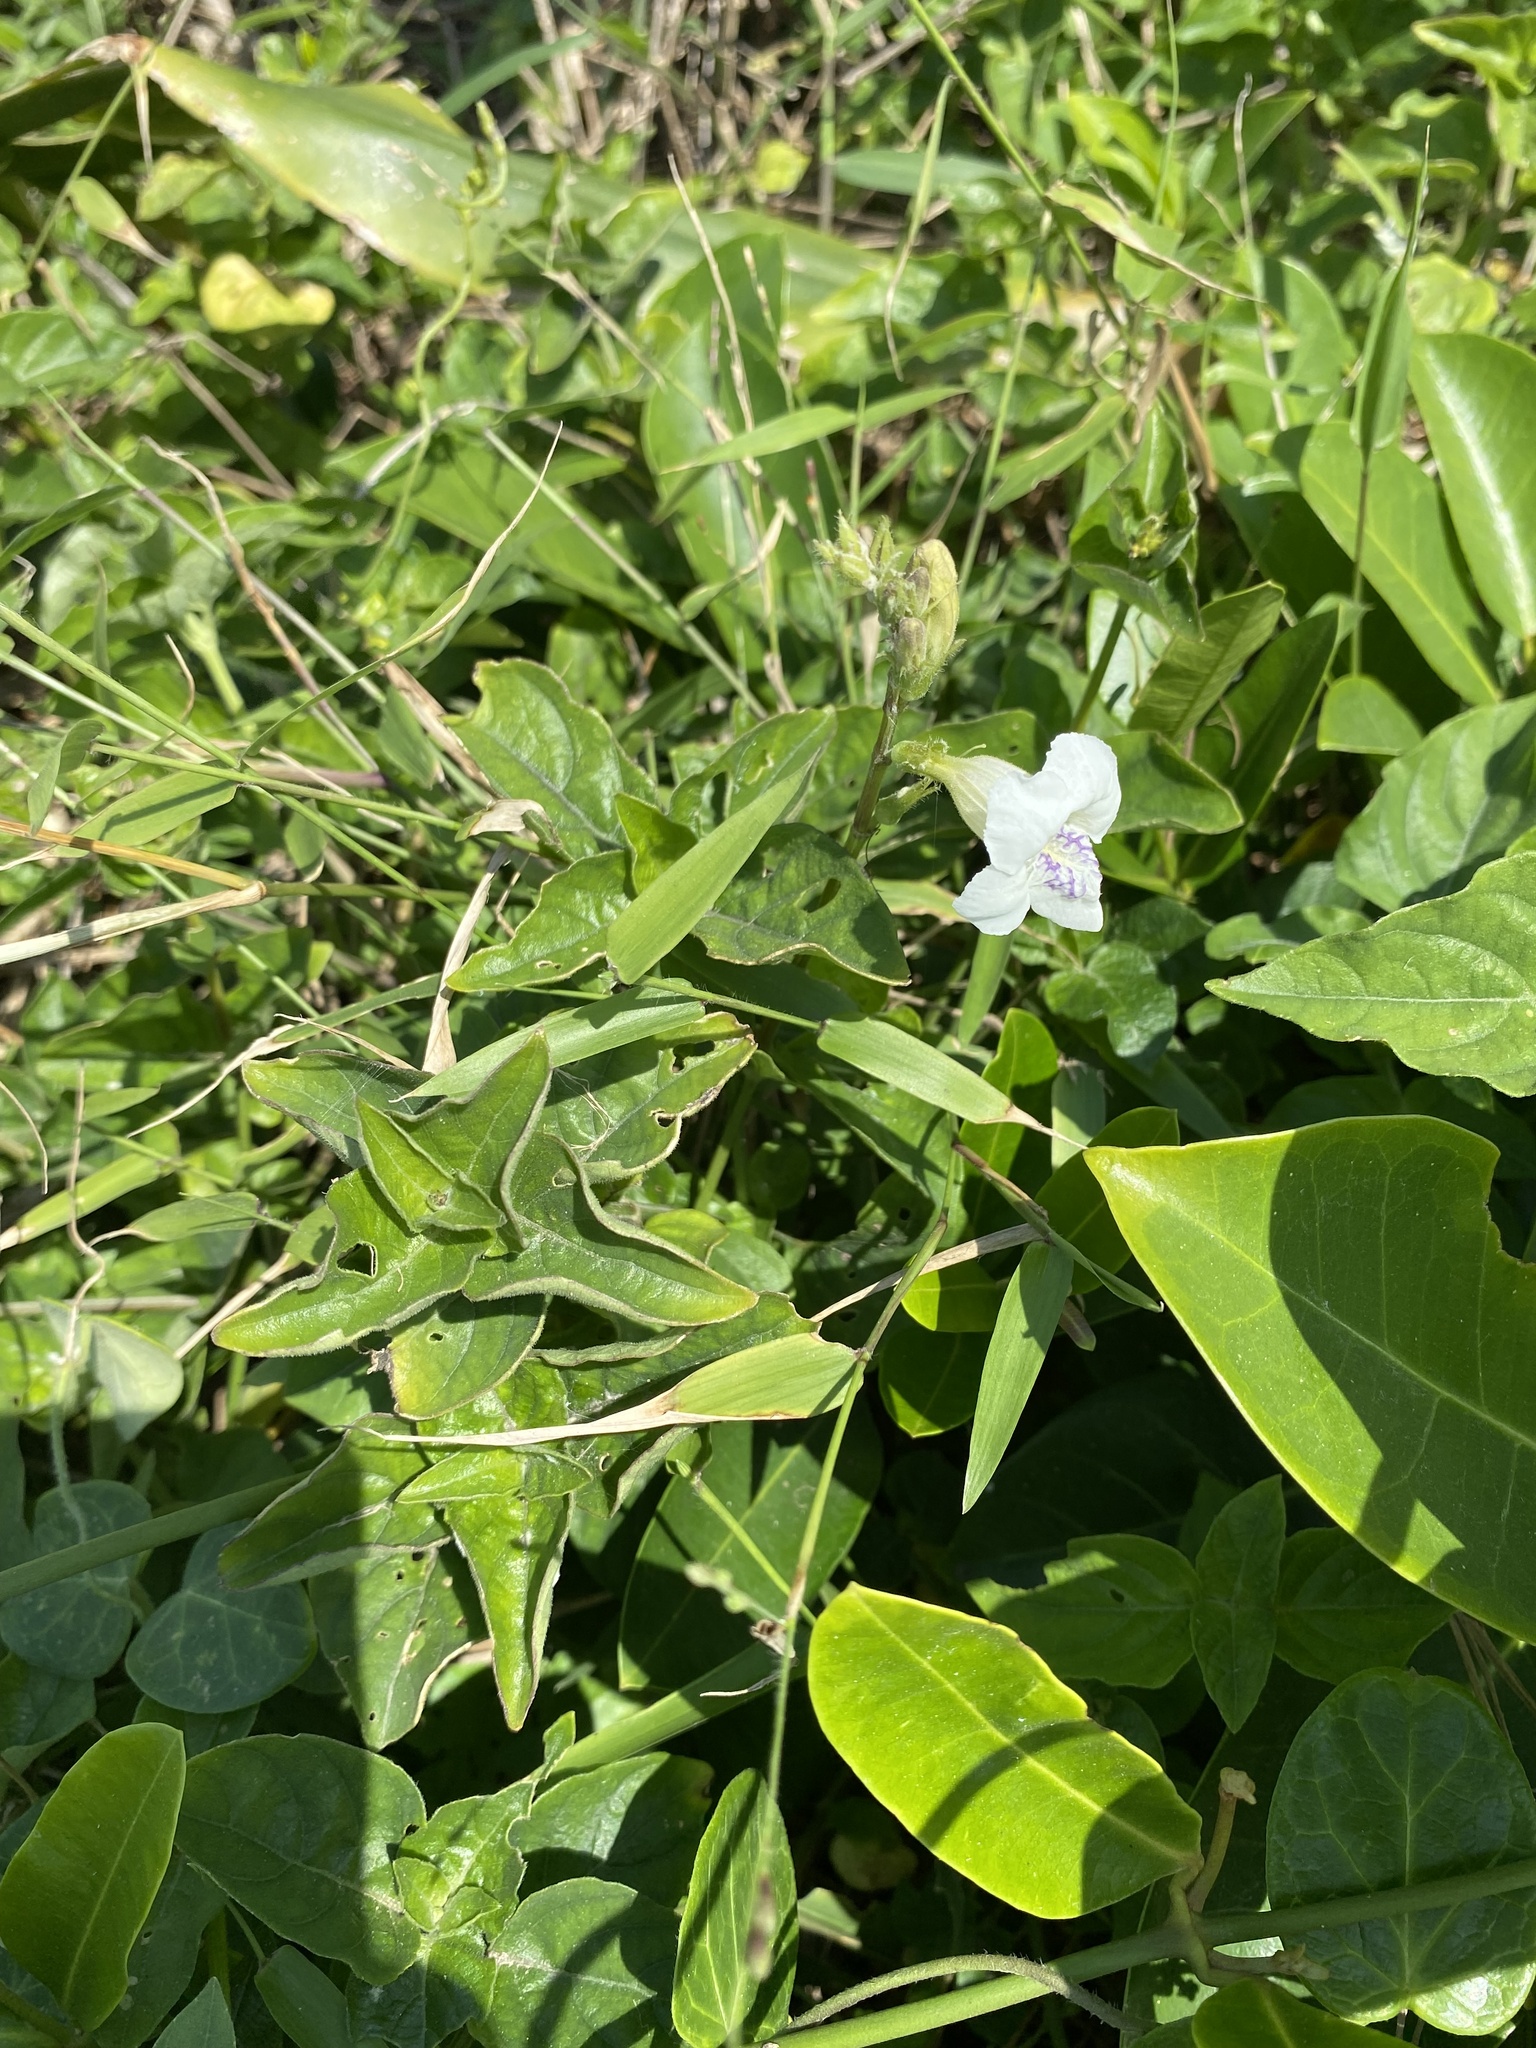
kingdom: Plantae
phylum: Tracheophyta
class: Magnoliopsida
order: Lamiales
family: Acanthaceae
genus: Asystasia
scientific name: Asystasia intrusa
